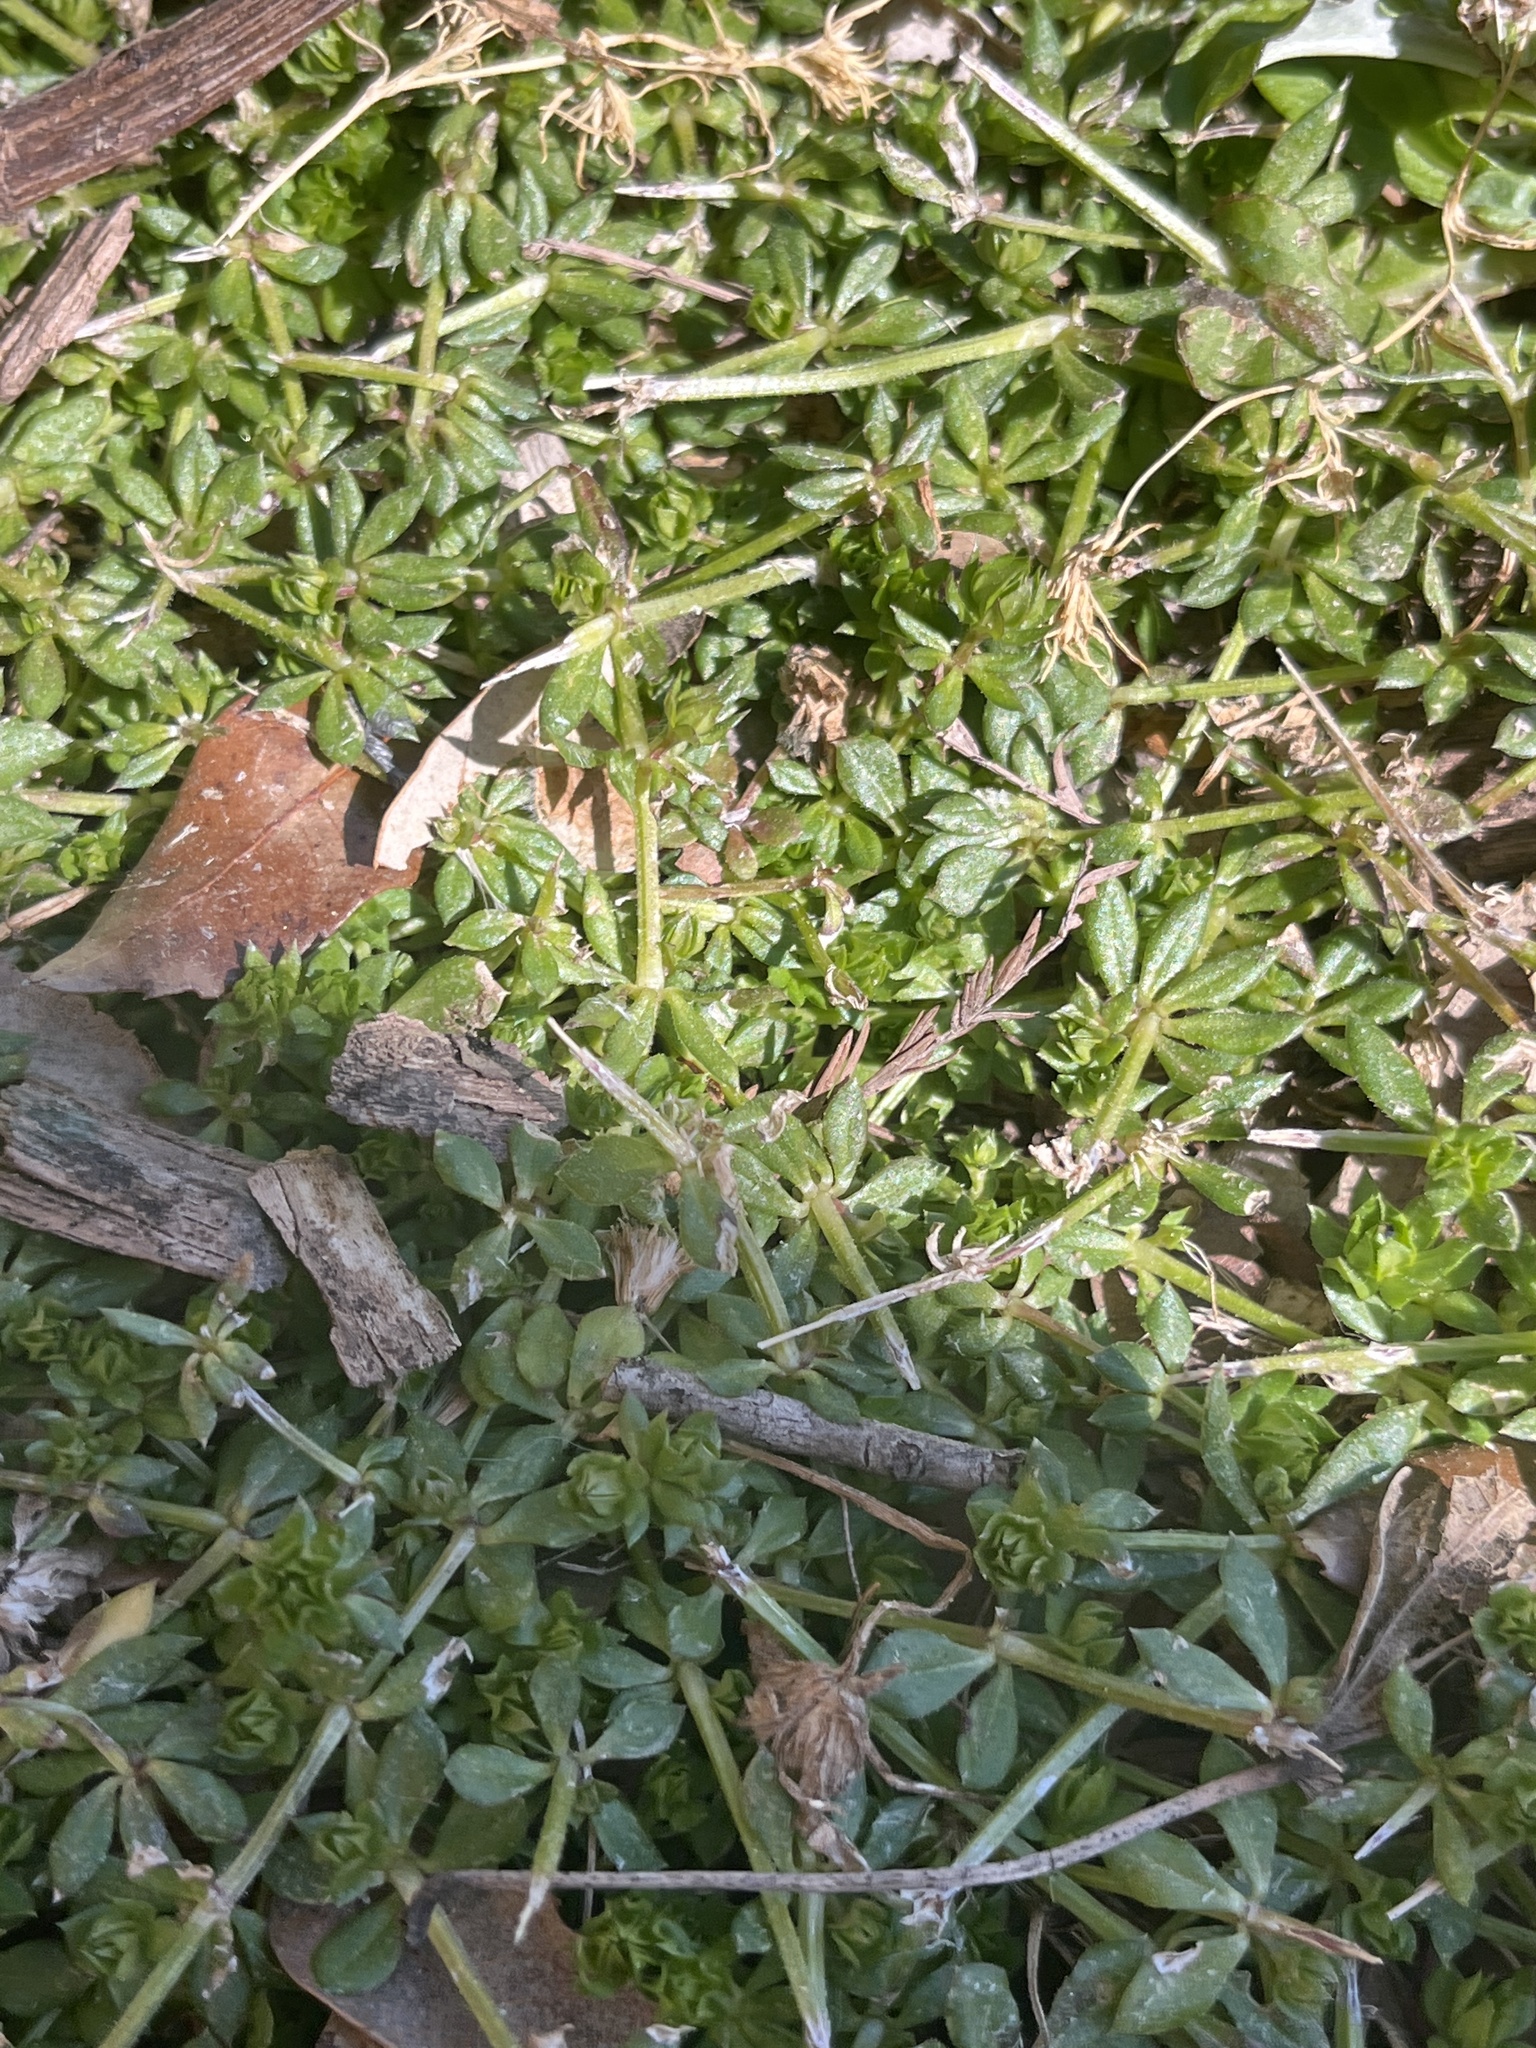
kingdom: Plantae
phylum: Tracheophyta
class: Magnoliopsida
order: Gentianales
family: Rubiaceae
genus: Sherardia
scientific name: Sherardia arvensis
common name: Field madder
